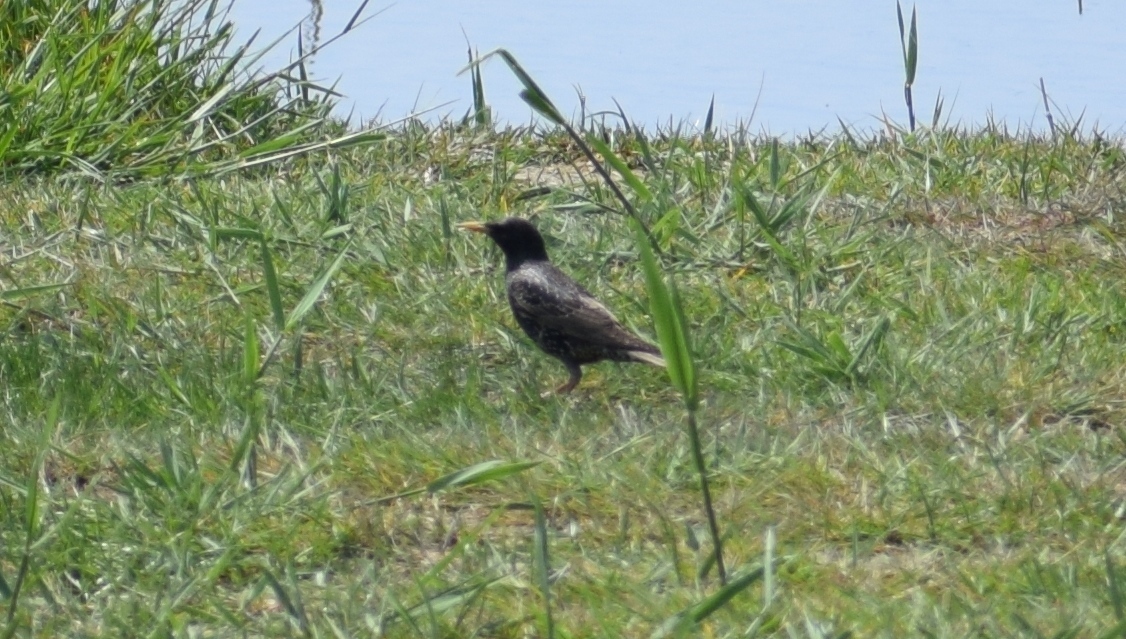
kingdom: Animalia
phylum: Chordata
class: Aves
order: Passeriformes
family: Sturnidae
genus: Sturnus
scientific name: Sturnus vulgaris
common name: Common starling
